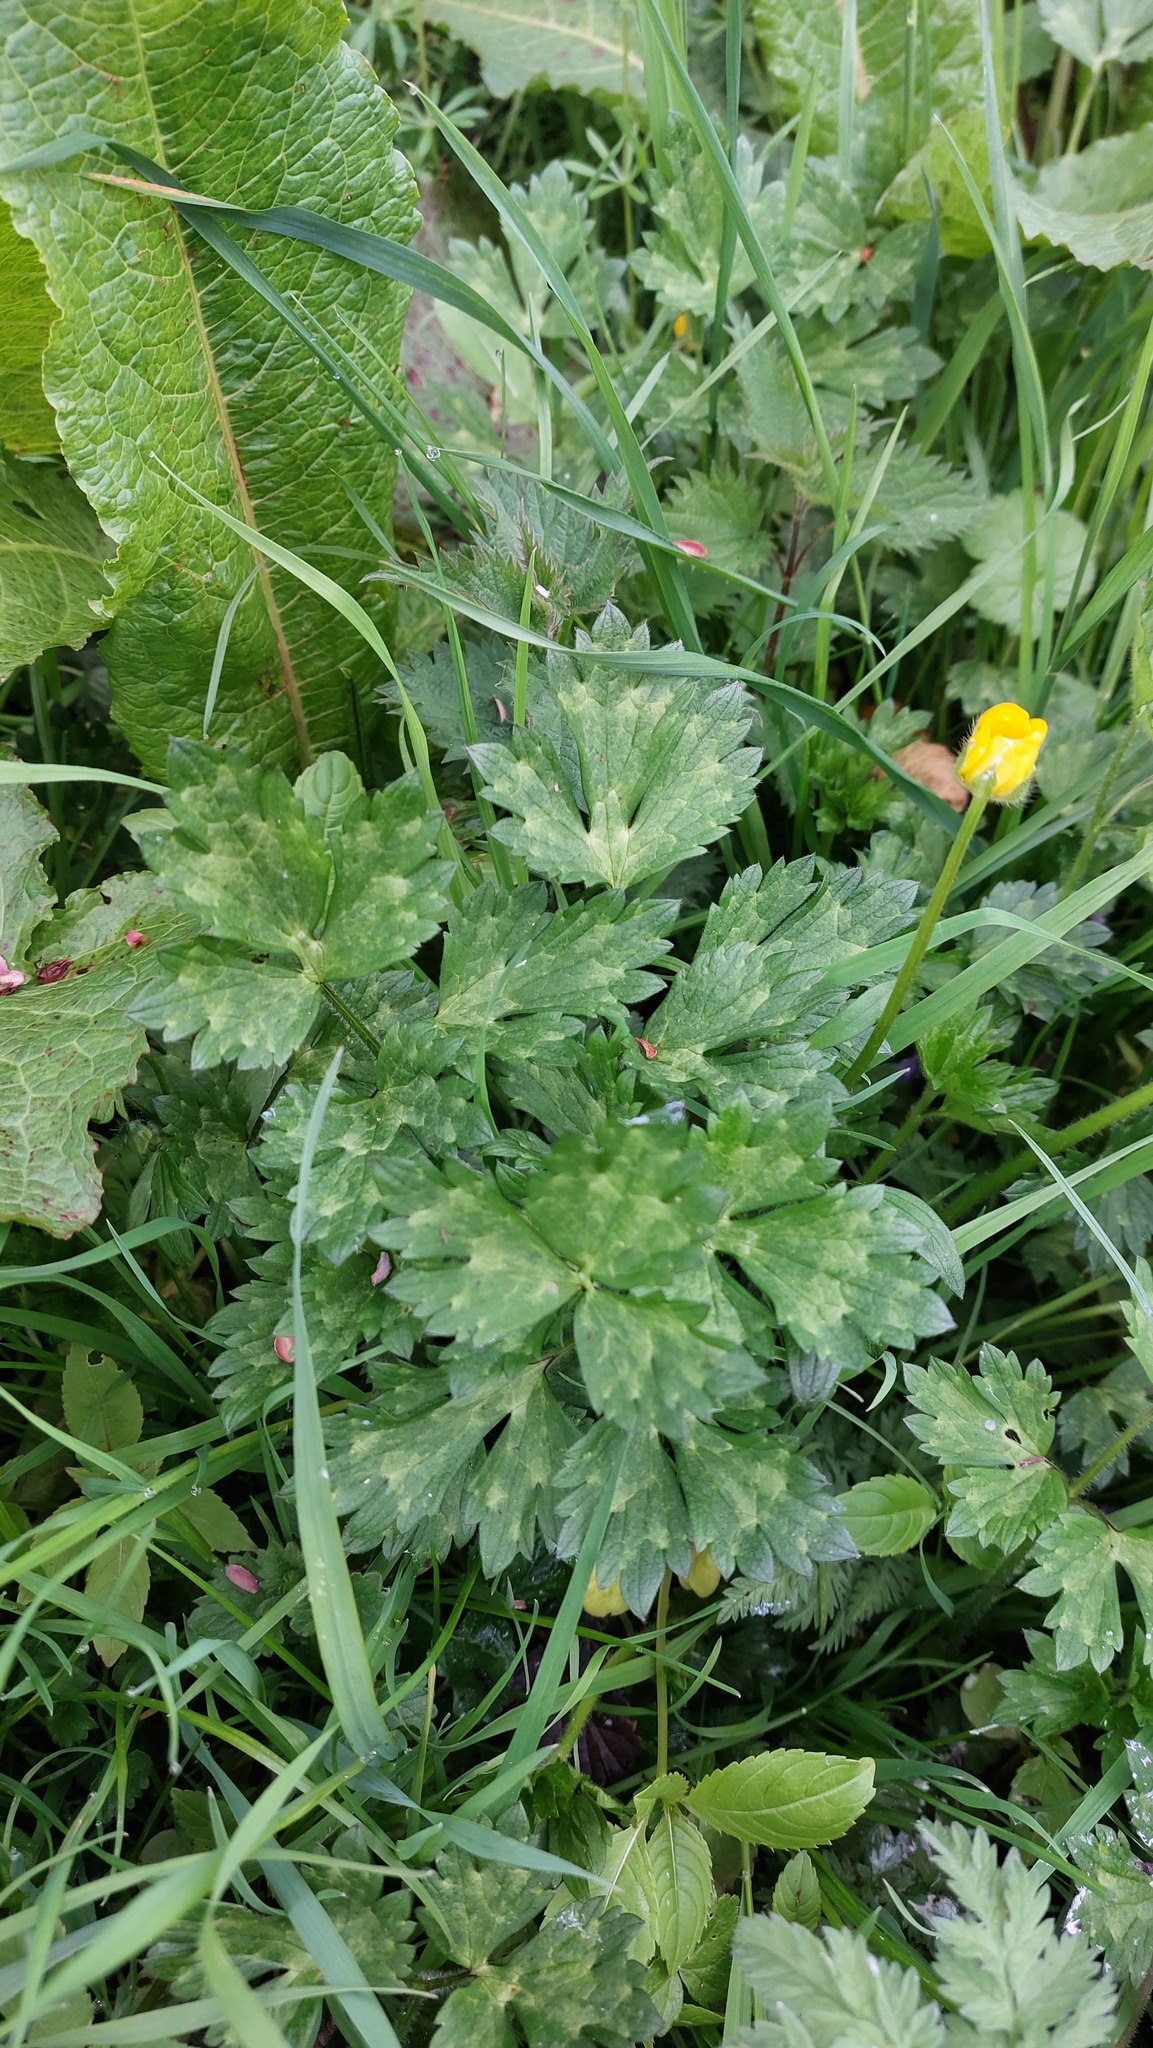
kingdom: Plantae
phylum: Tracheophyta
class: Magnoliopsida
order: Ranunculales
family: Ranunculaceae
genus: Ranunculus
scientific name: Ranunculus repens
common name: Creeping buttercup
